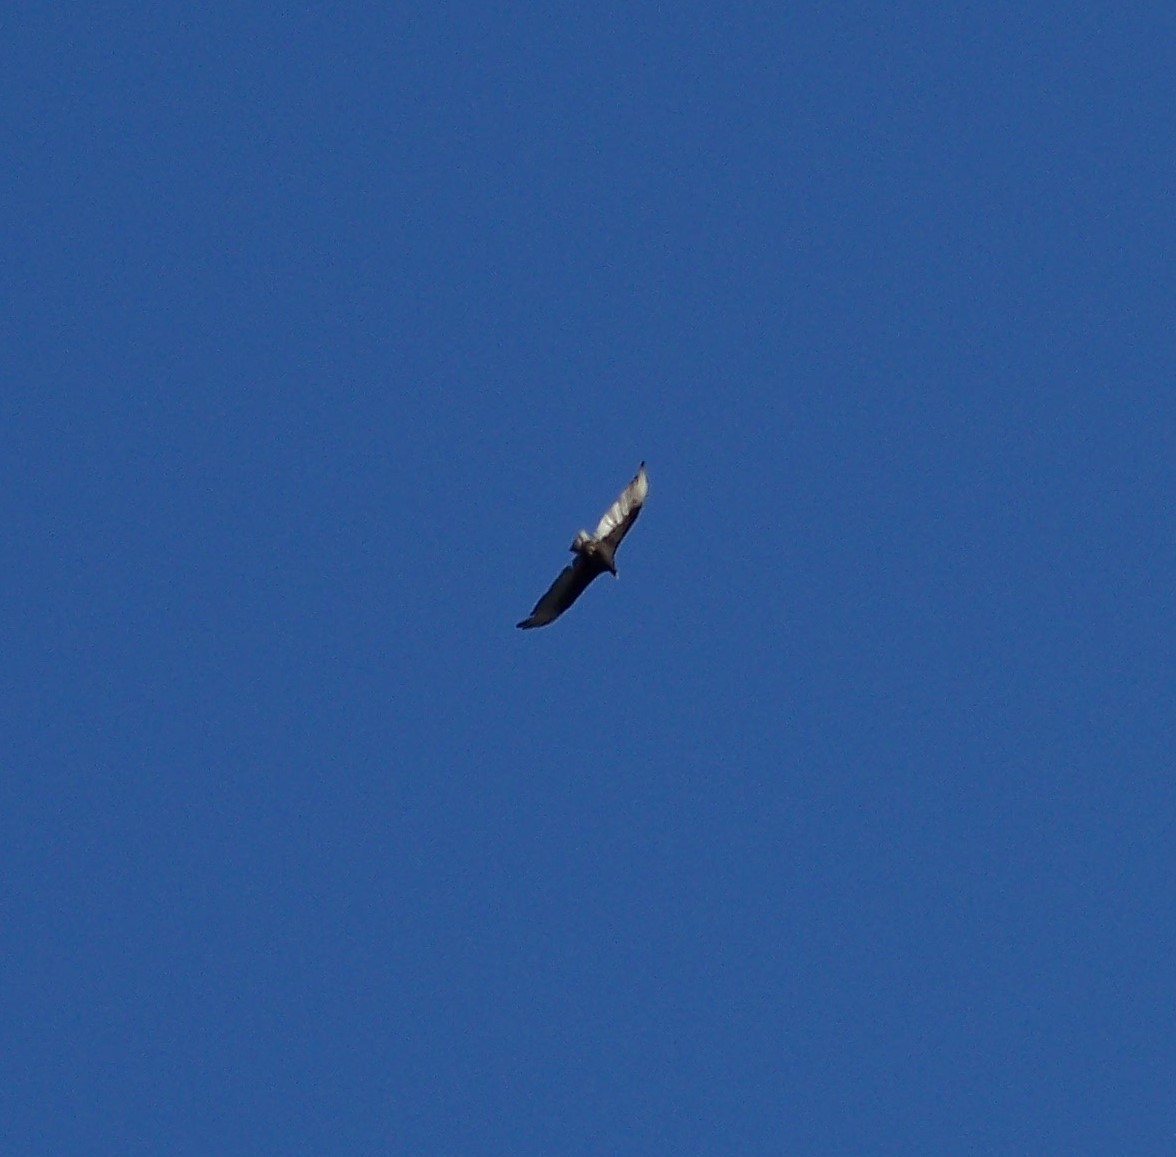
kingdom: Animalia
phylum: Chordata
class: Aves
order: Accipitriformes
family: Cathartidae
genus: Cathartes
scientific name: Cathartes aura
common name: Turkey vulture
